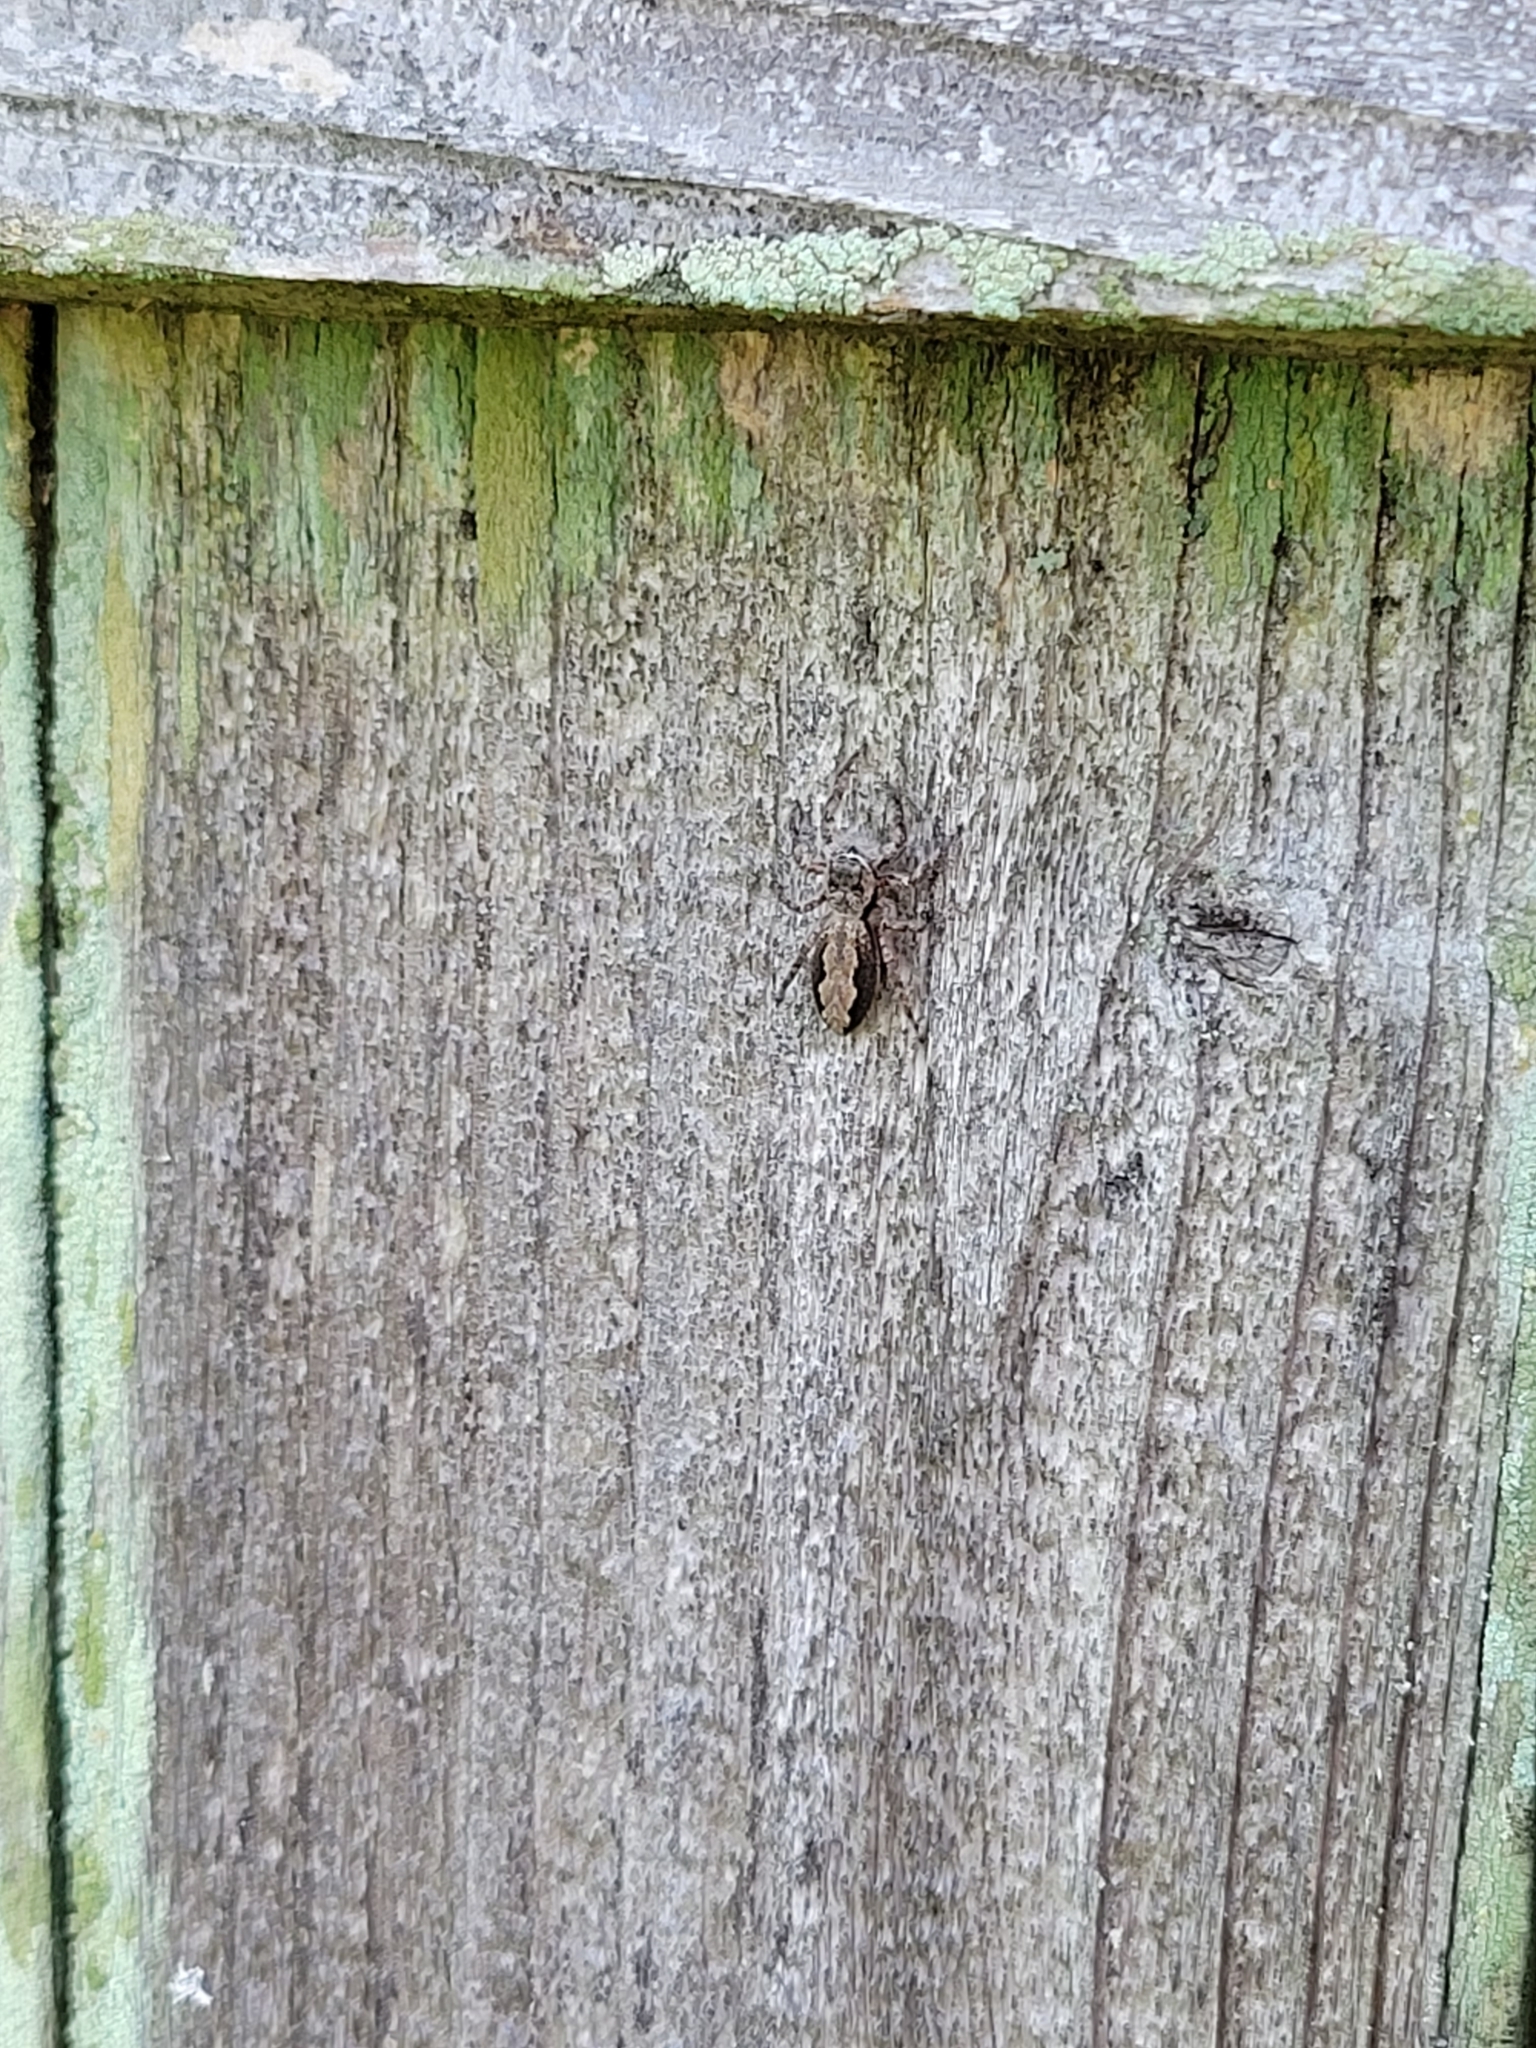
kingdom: Animalia
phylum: Arthropoda
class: Arachnida
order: Araneae
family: Salticidae
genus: Platycryptus
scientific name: Platycryptus undatus
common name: Tan jumping spider
